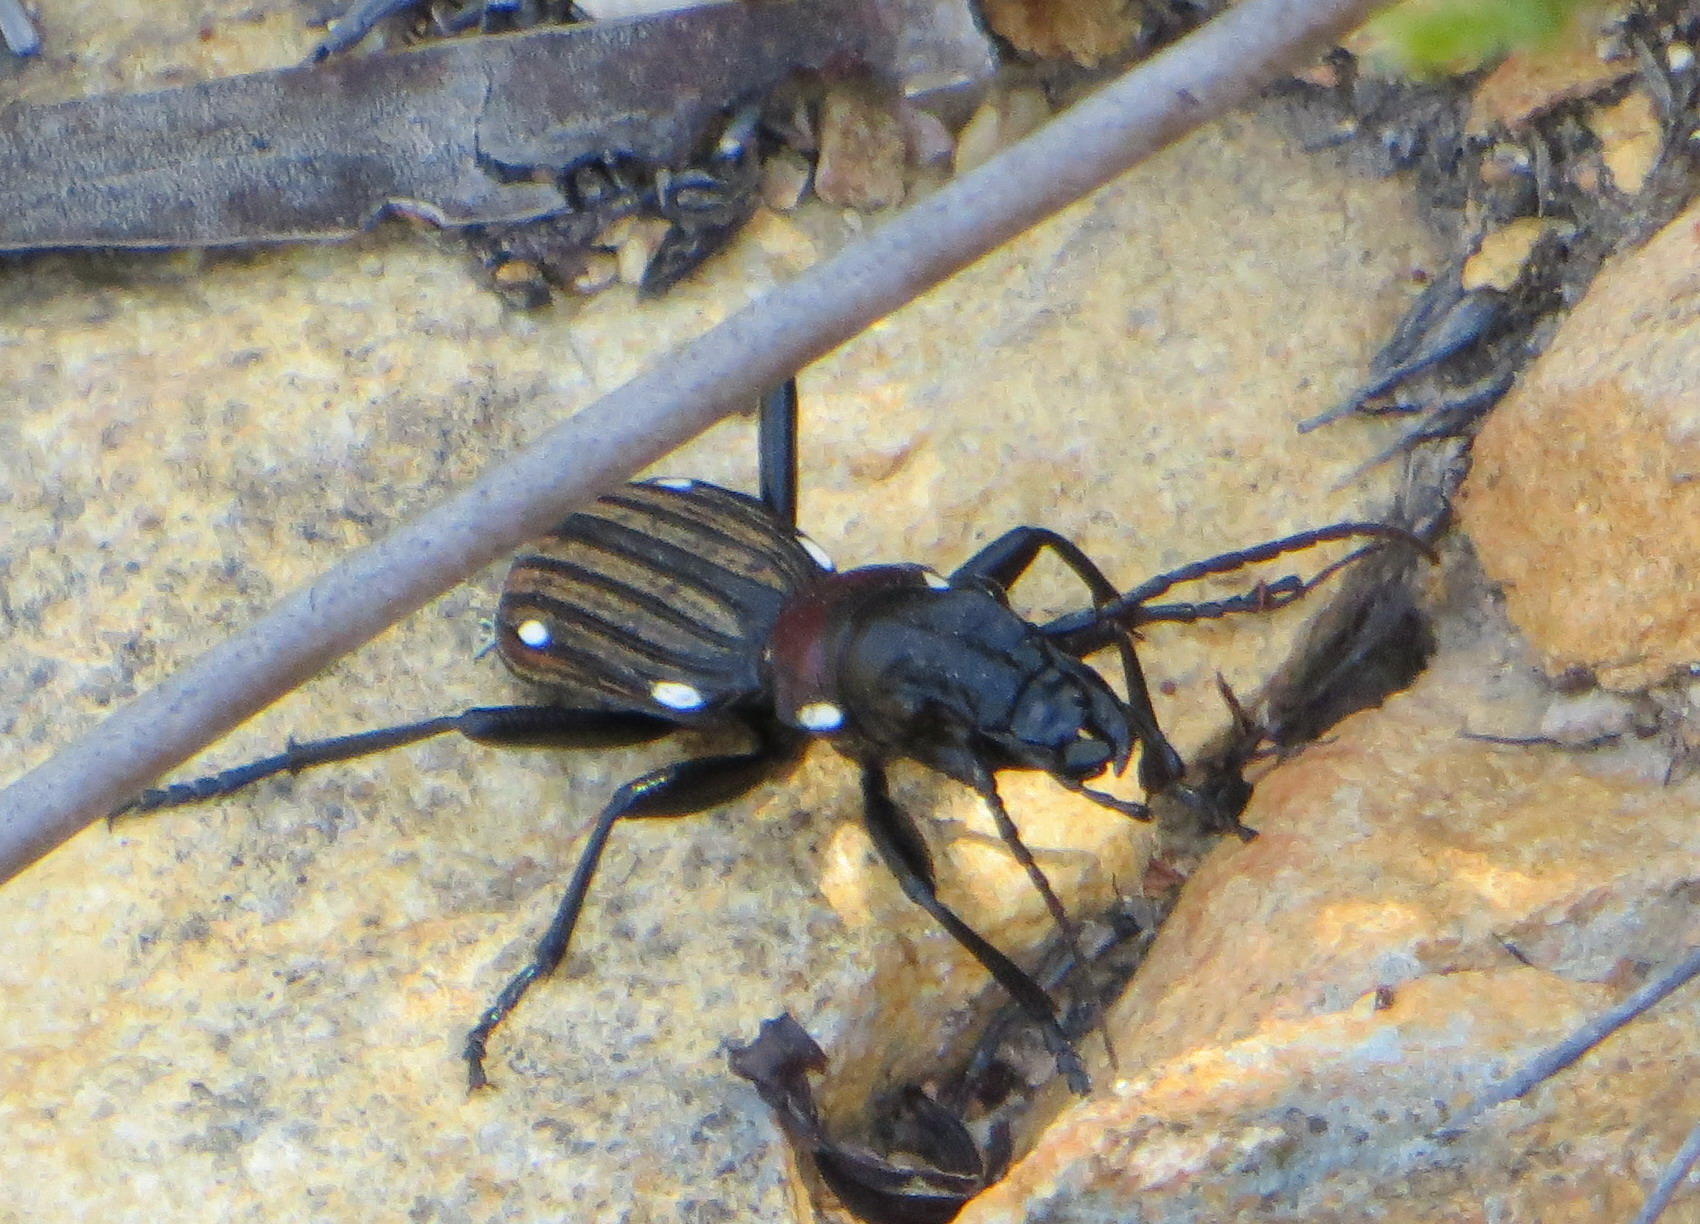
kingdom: Animalia
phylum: Arthropoda
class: Insecta
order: Coleoptera
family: Carabidae
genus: Anthia
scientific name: Anthia decemguttata
